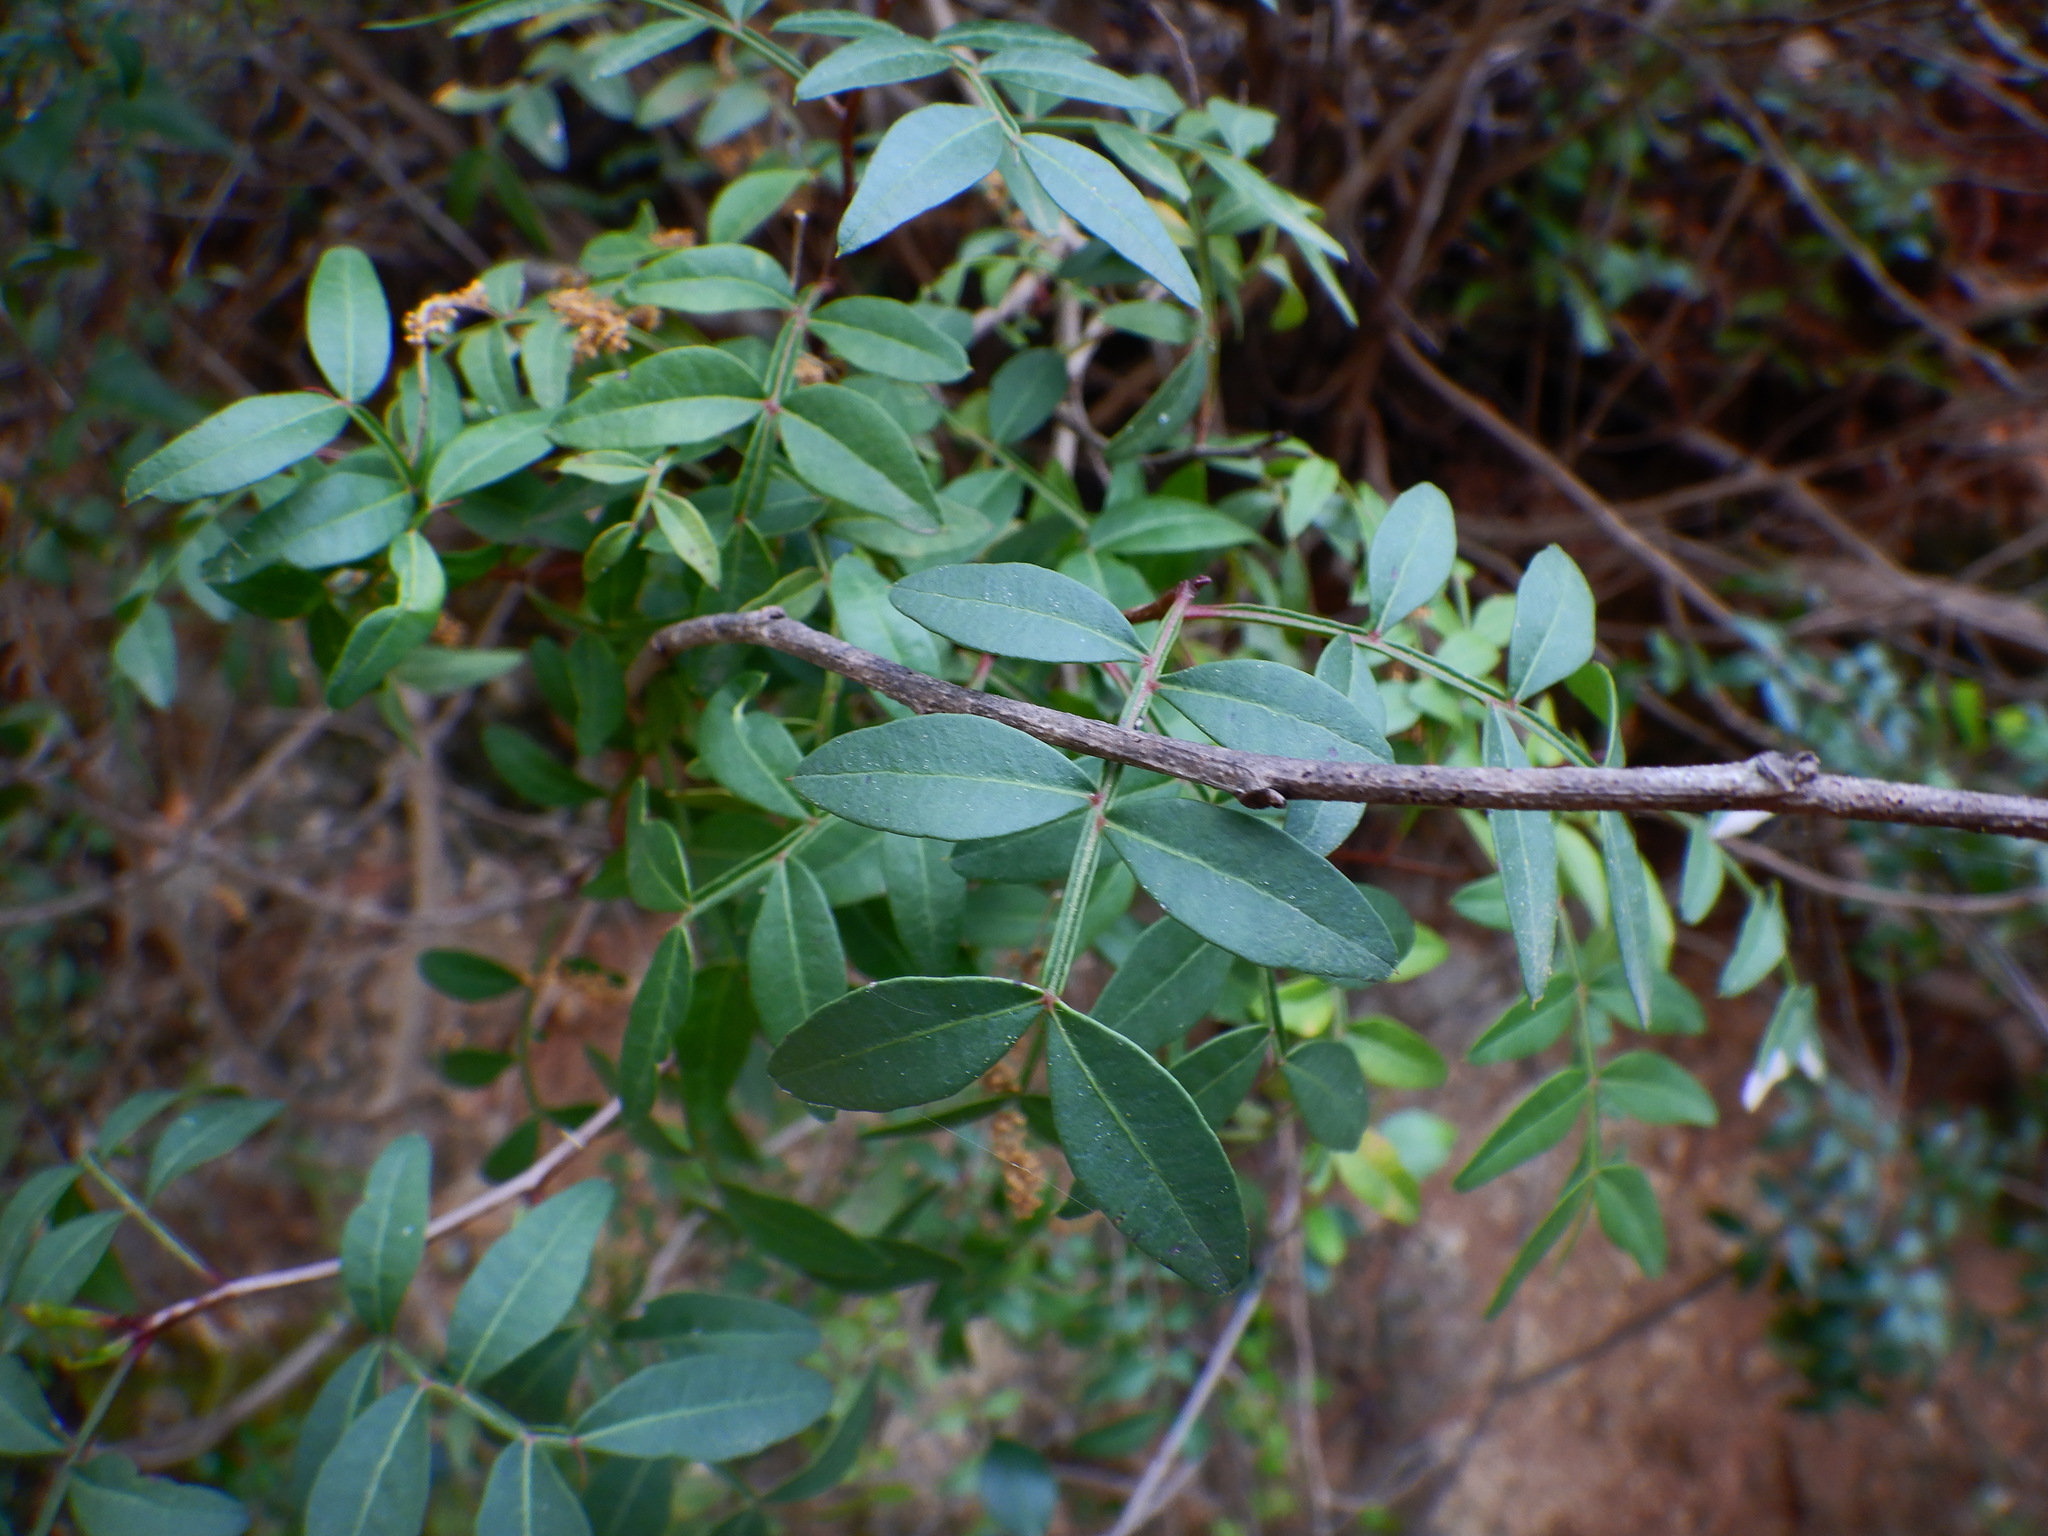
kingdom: Plantae
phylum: Tracheophyta
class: Magnoliopsida
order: Sapindales
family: Anacardiaceae
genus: Pistacia
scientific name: Pistacia lentiscus
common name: Lentisk
